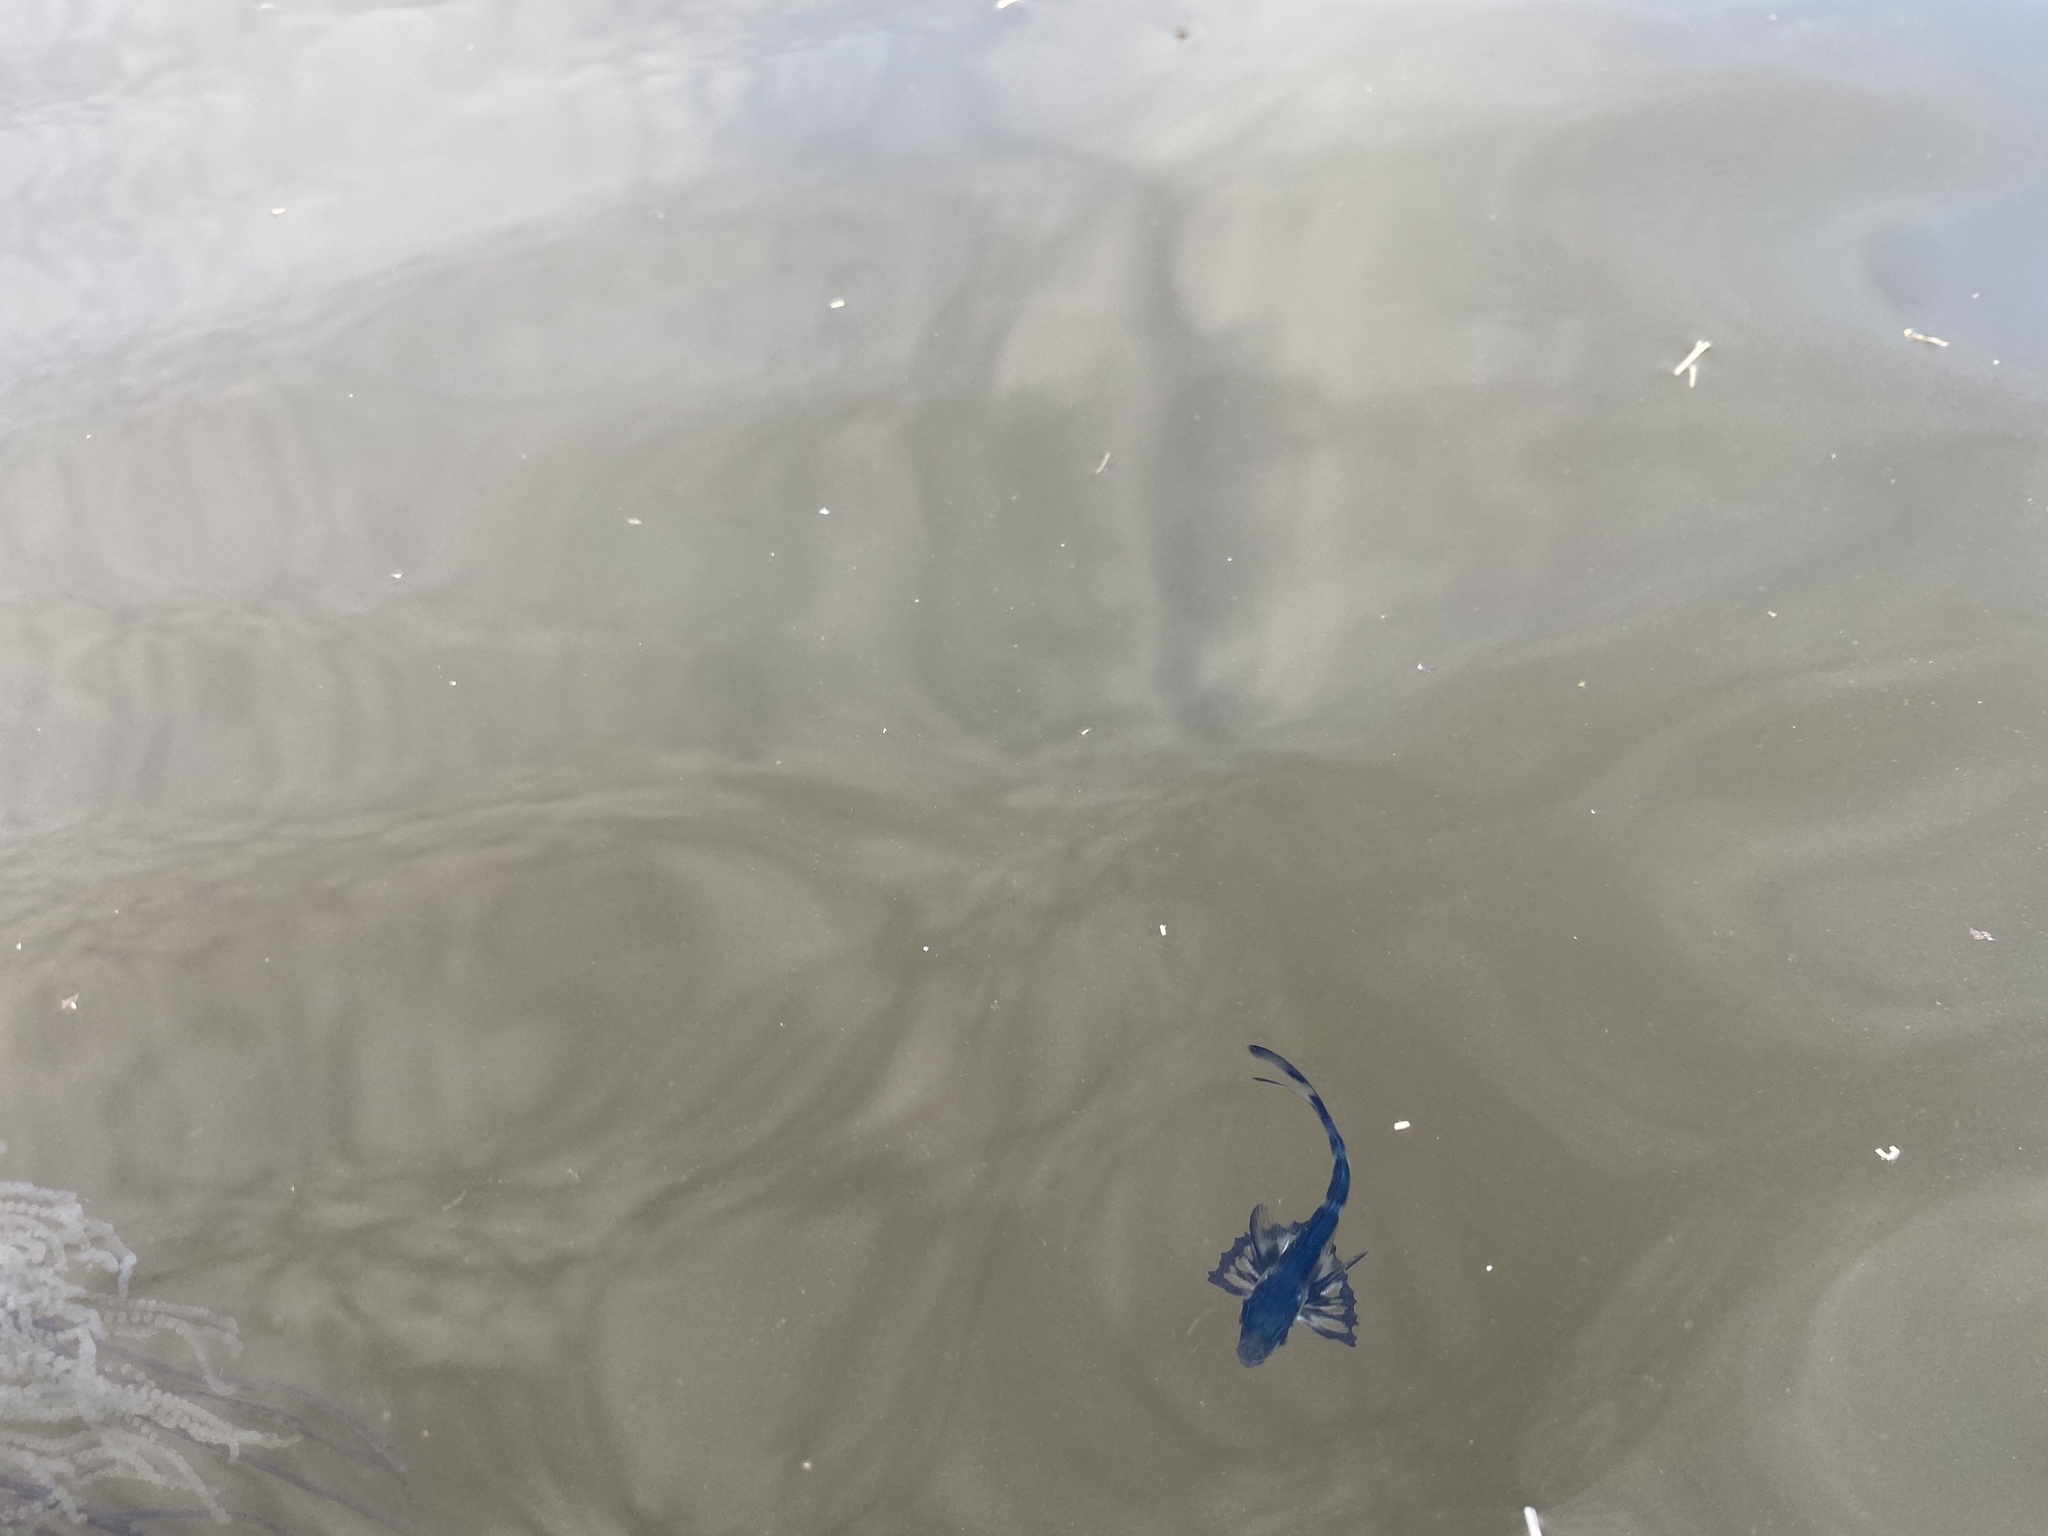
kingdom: Animalia
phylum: Chordata
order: Perciformes
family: Nomeidae
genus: Nomeus
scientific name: Nomeus gronovii
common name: Man-of-war fish
